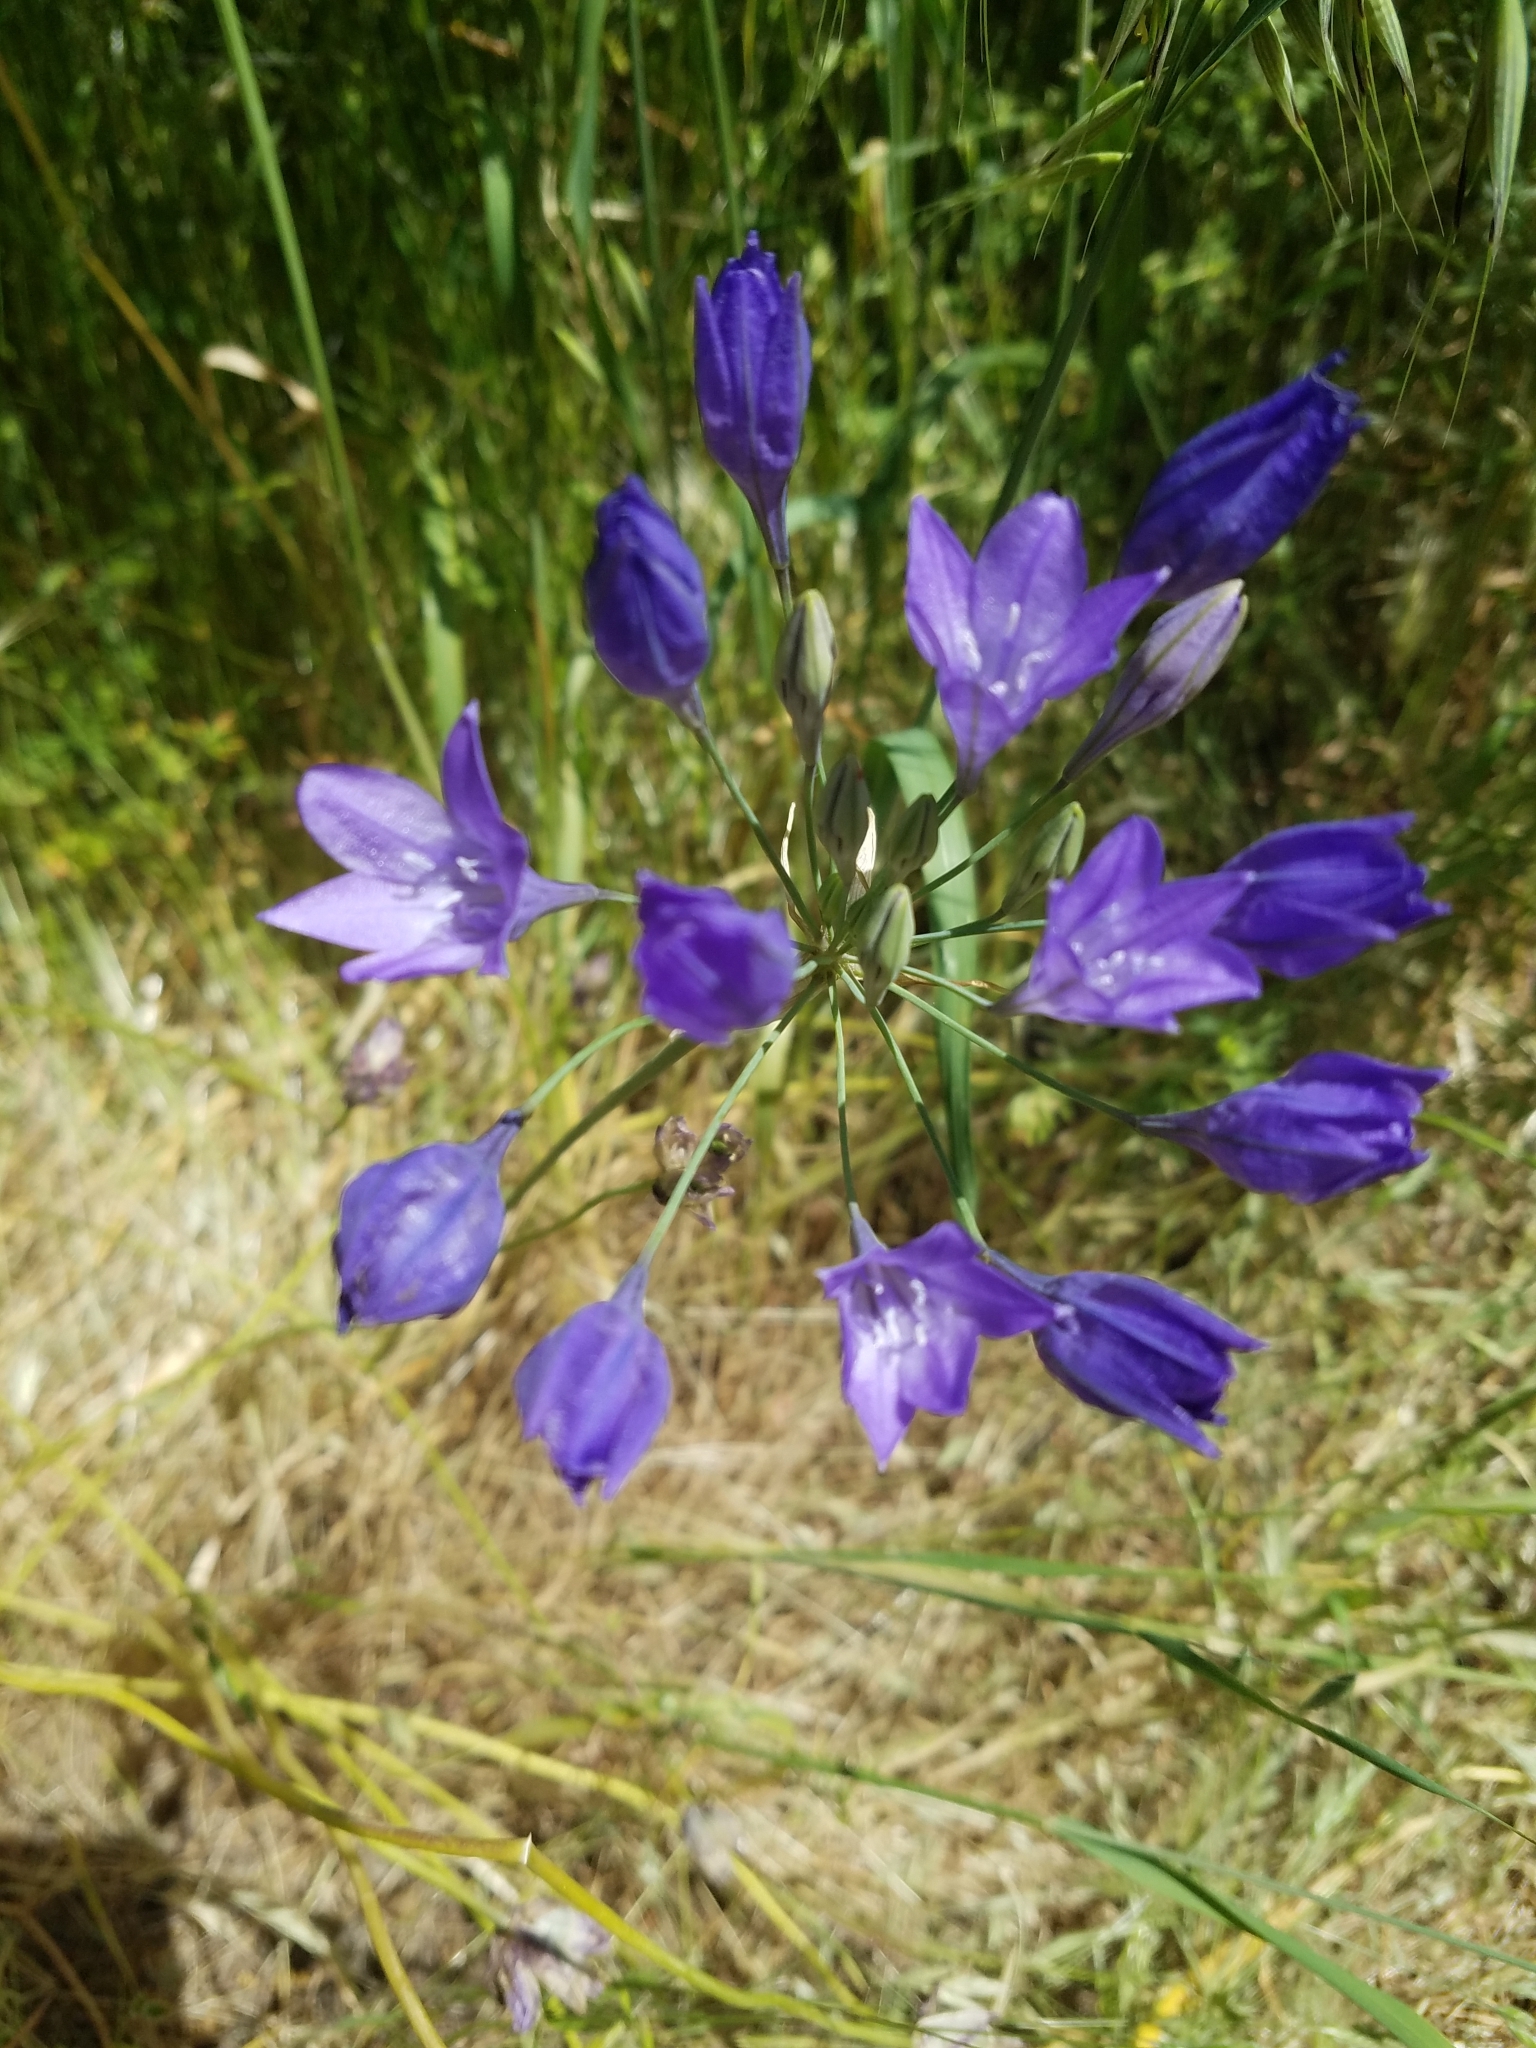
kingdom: Plantae
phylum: Tracheophyta
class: Liliopsida
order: Asparagales
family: Asparagaceae
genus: Triteleia
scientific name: Triteleia laxa
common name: Triplet-lily
